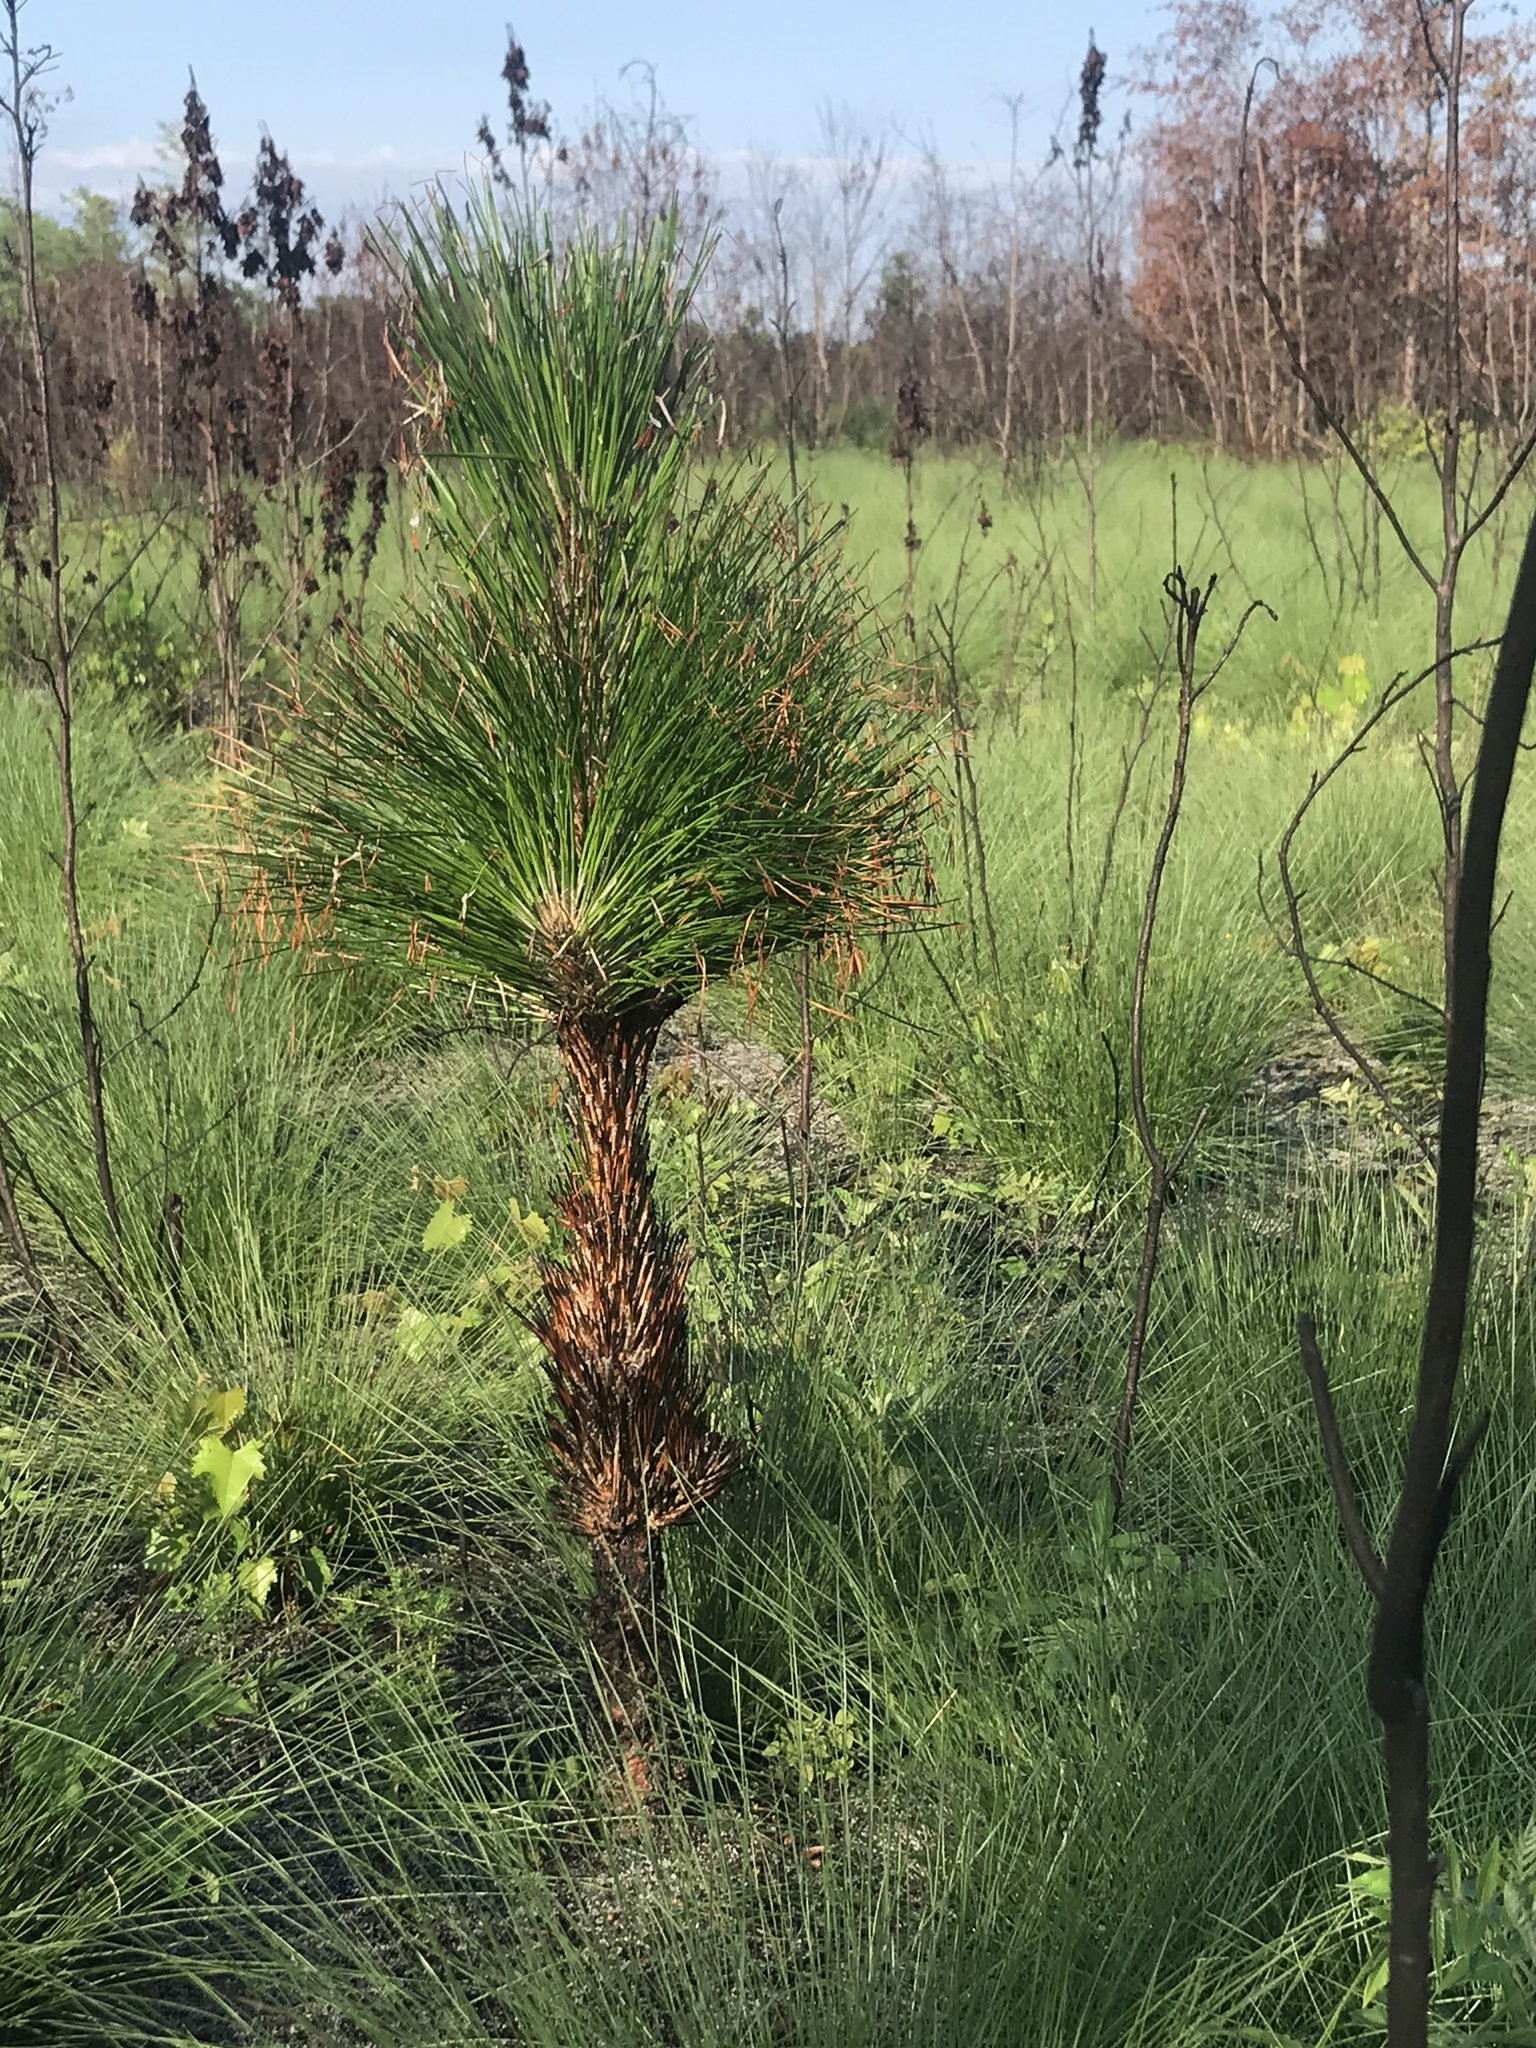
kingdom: Plantae
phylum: Tracheophyta
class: Pinopsida
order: Pinales
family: Pinaceae
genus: Pinus
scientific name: Pinus palustris
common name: Longleaf pine
